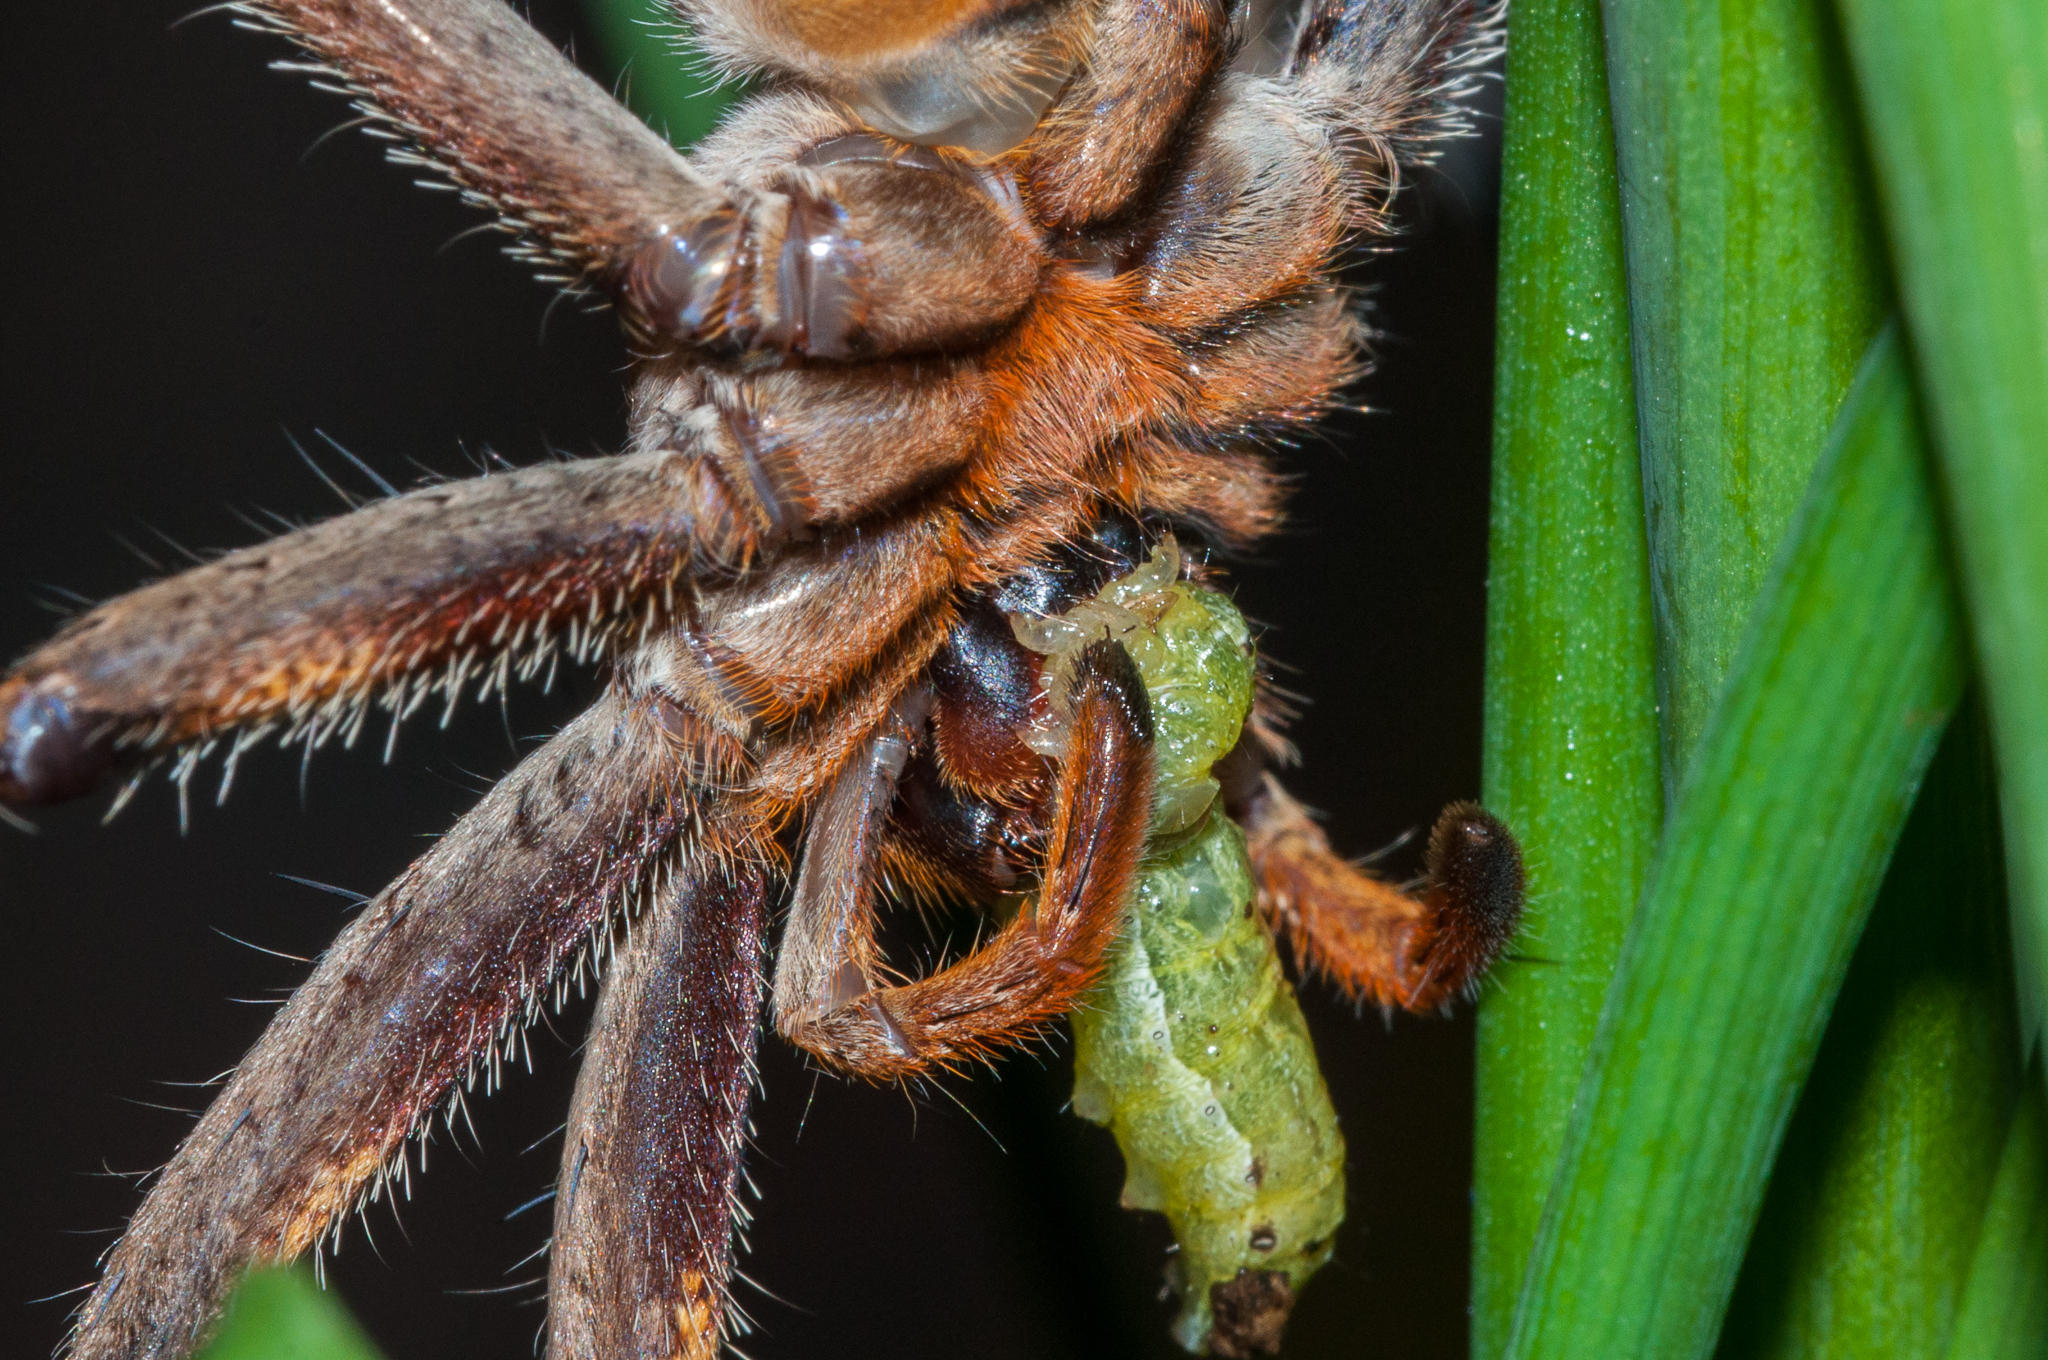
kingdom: Animalia
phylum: Arthropoda
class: Arachnida
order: Araneae
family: Sparassidae
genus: Palystes
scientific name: Palystes superciliosus
